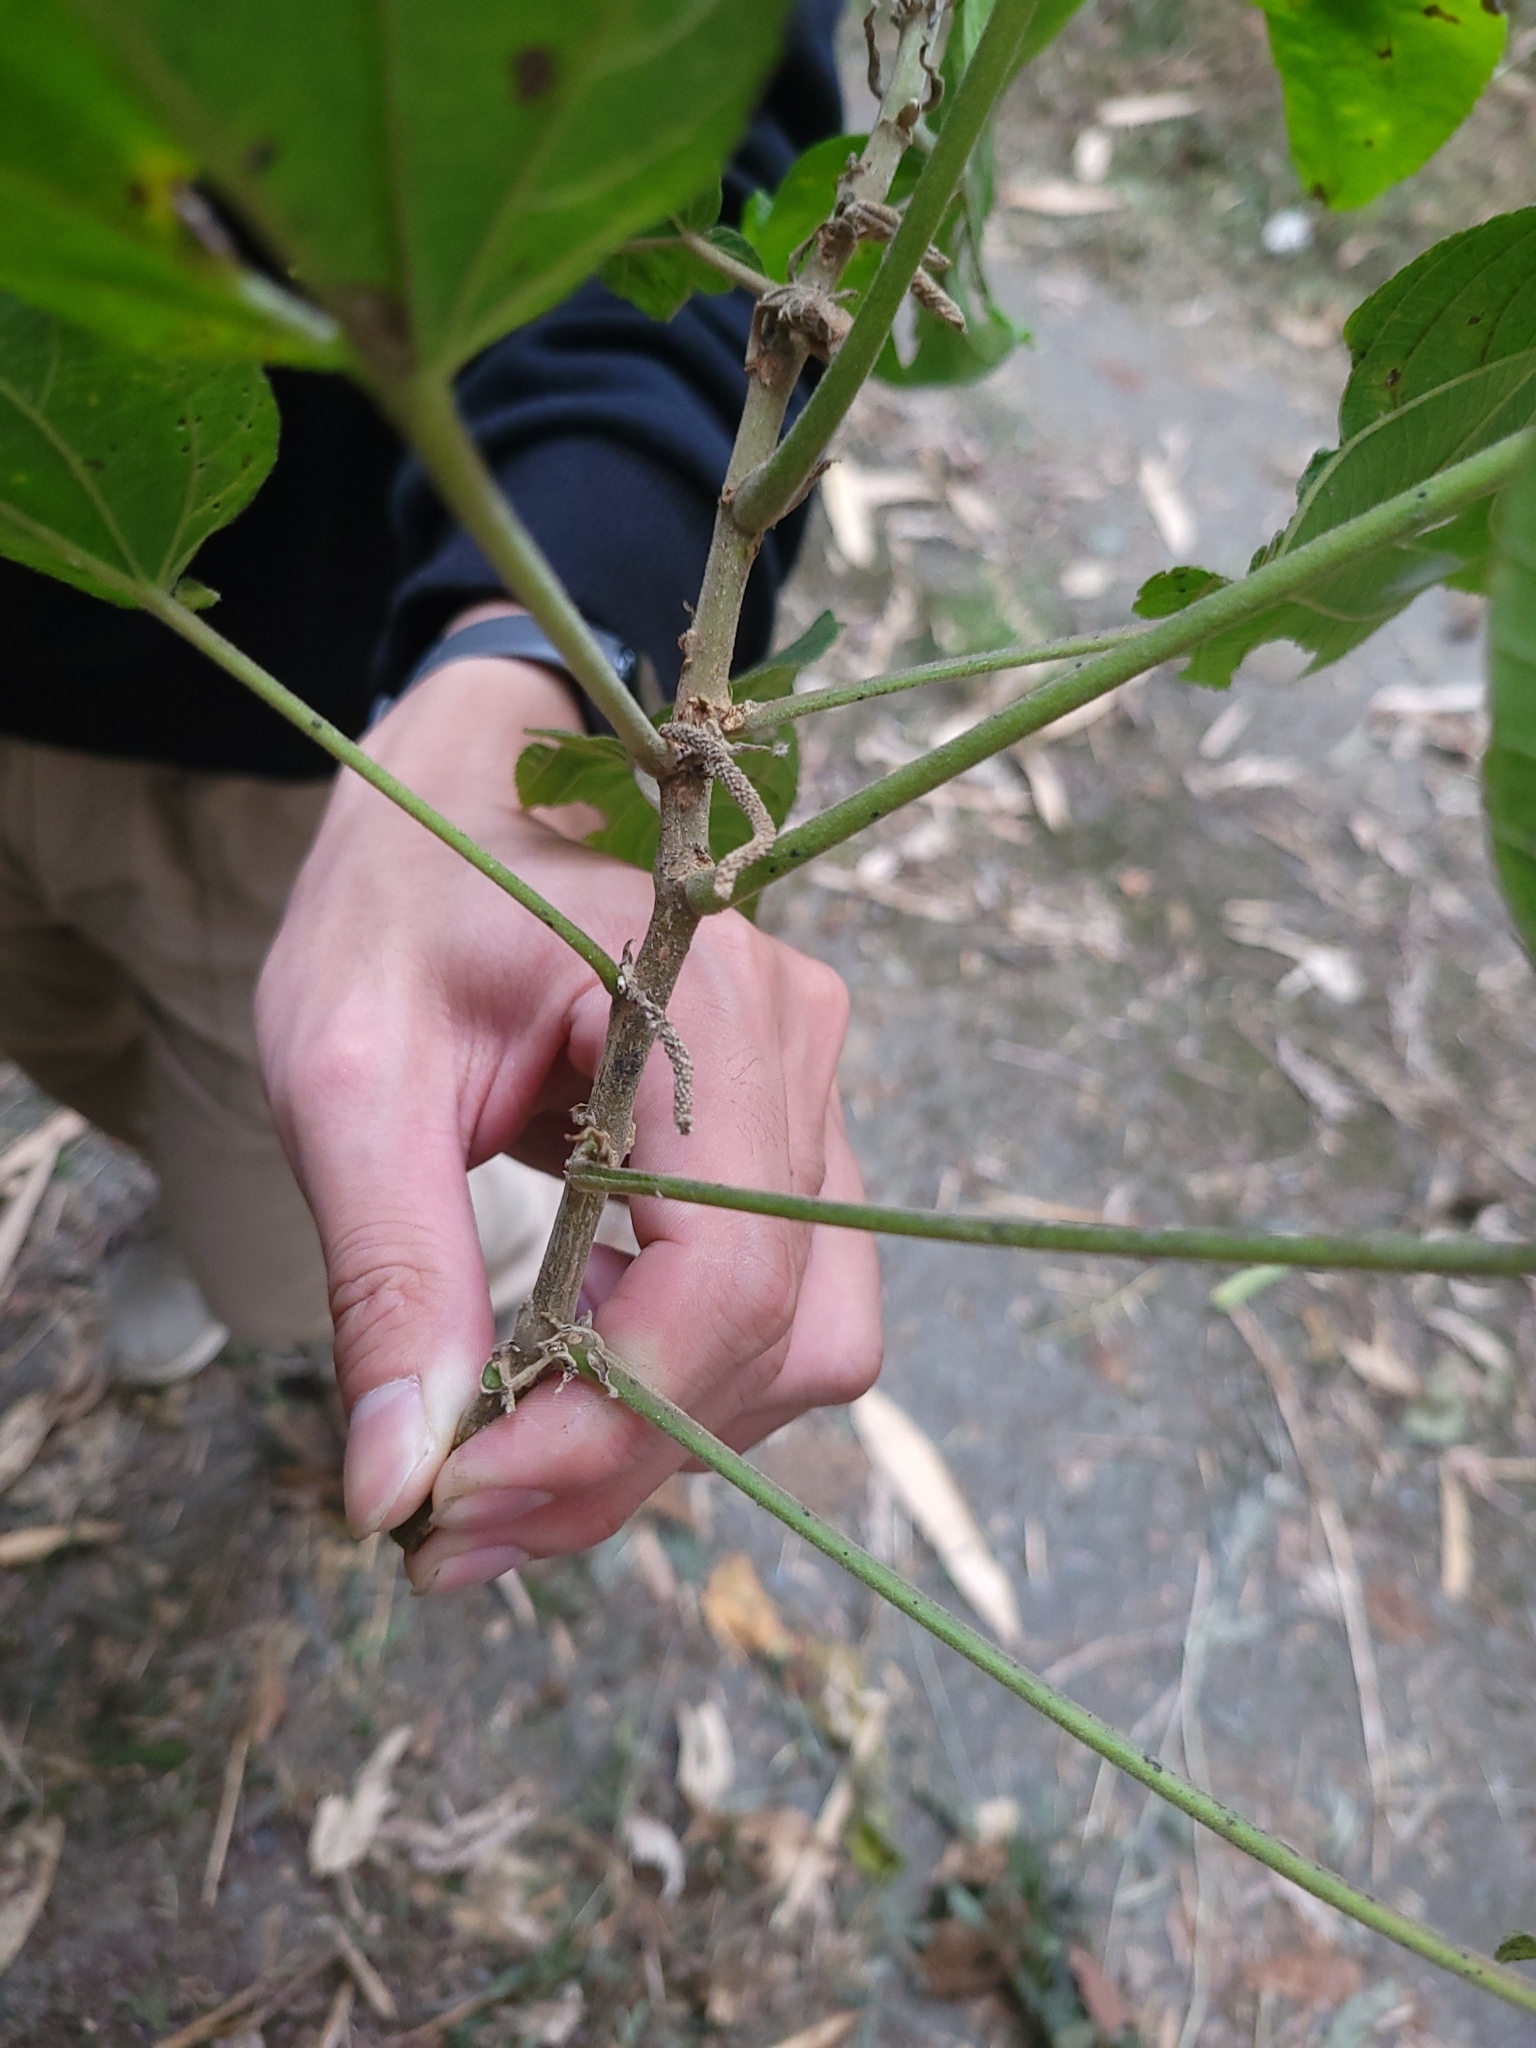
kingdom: Plantae
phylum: Tracheophyta
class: Magnoliopsida
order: Malpighiales
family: Euphorbiaceae
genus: Acalypha
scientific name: Acalypha angatensis
